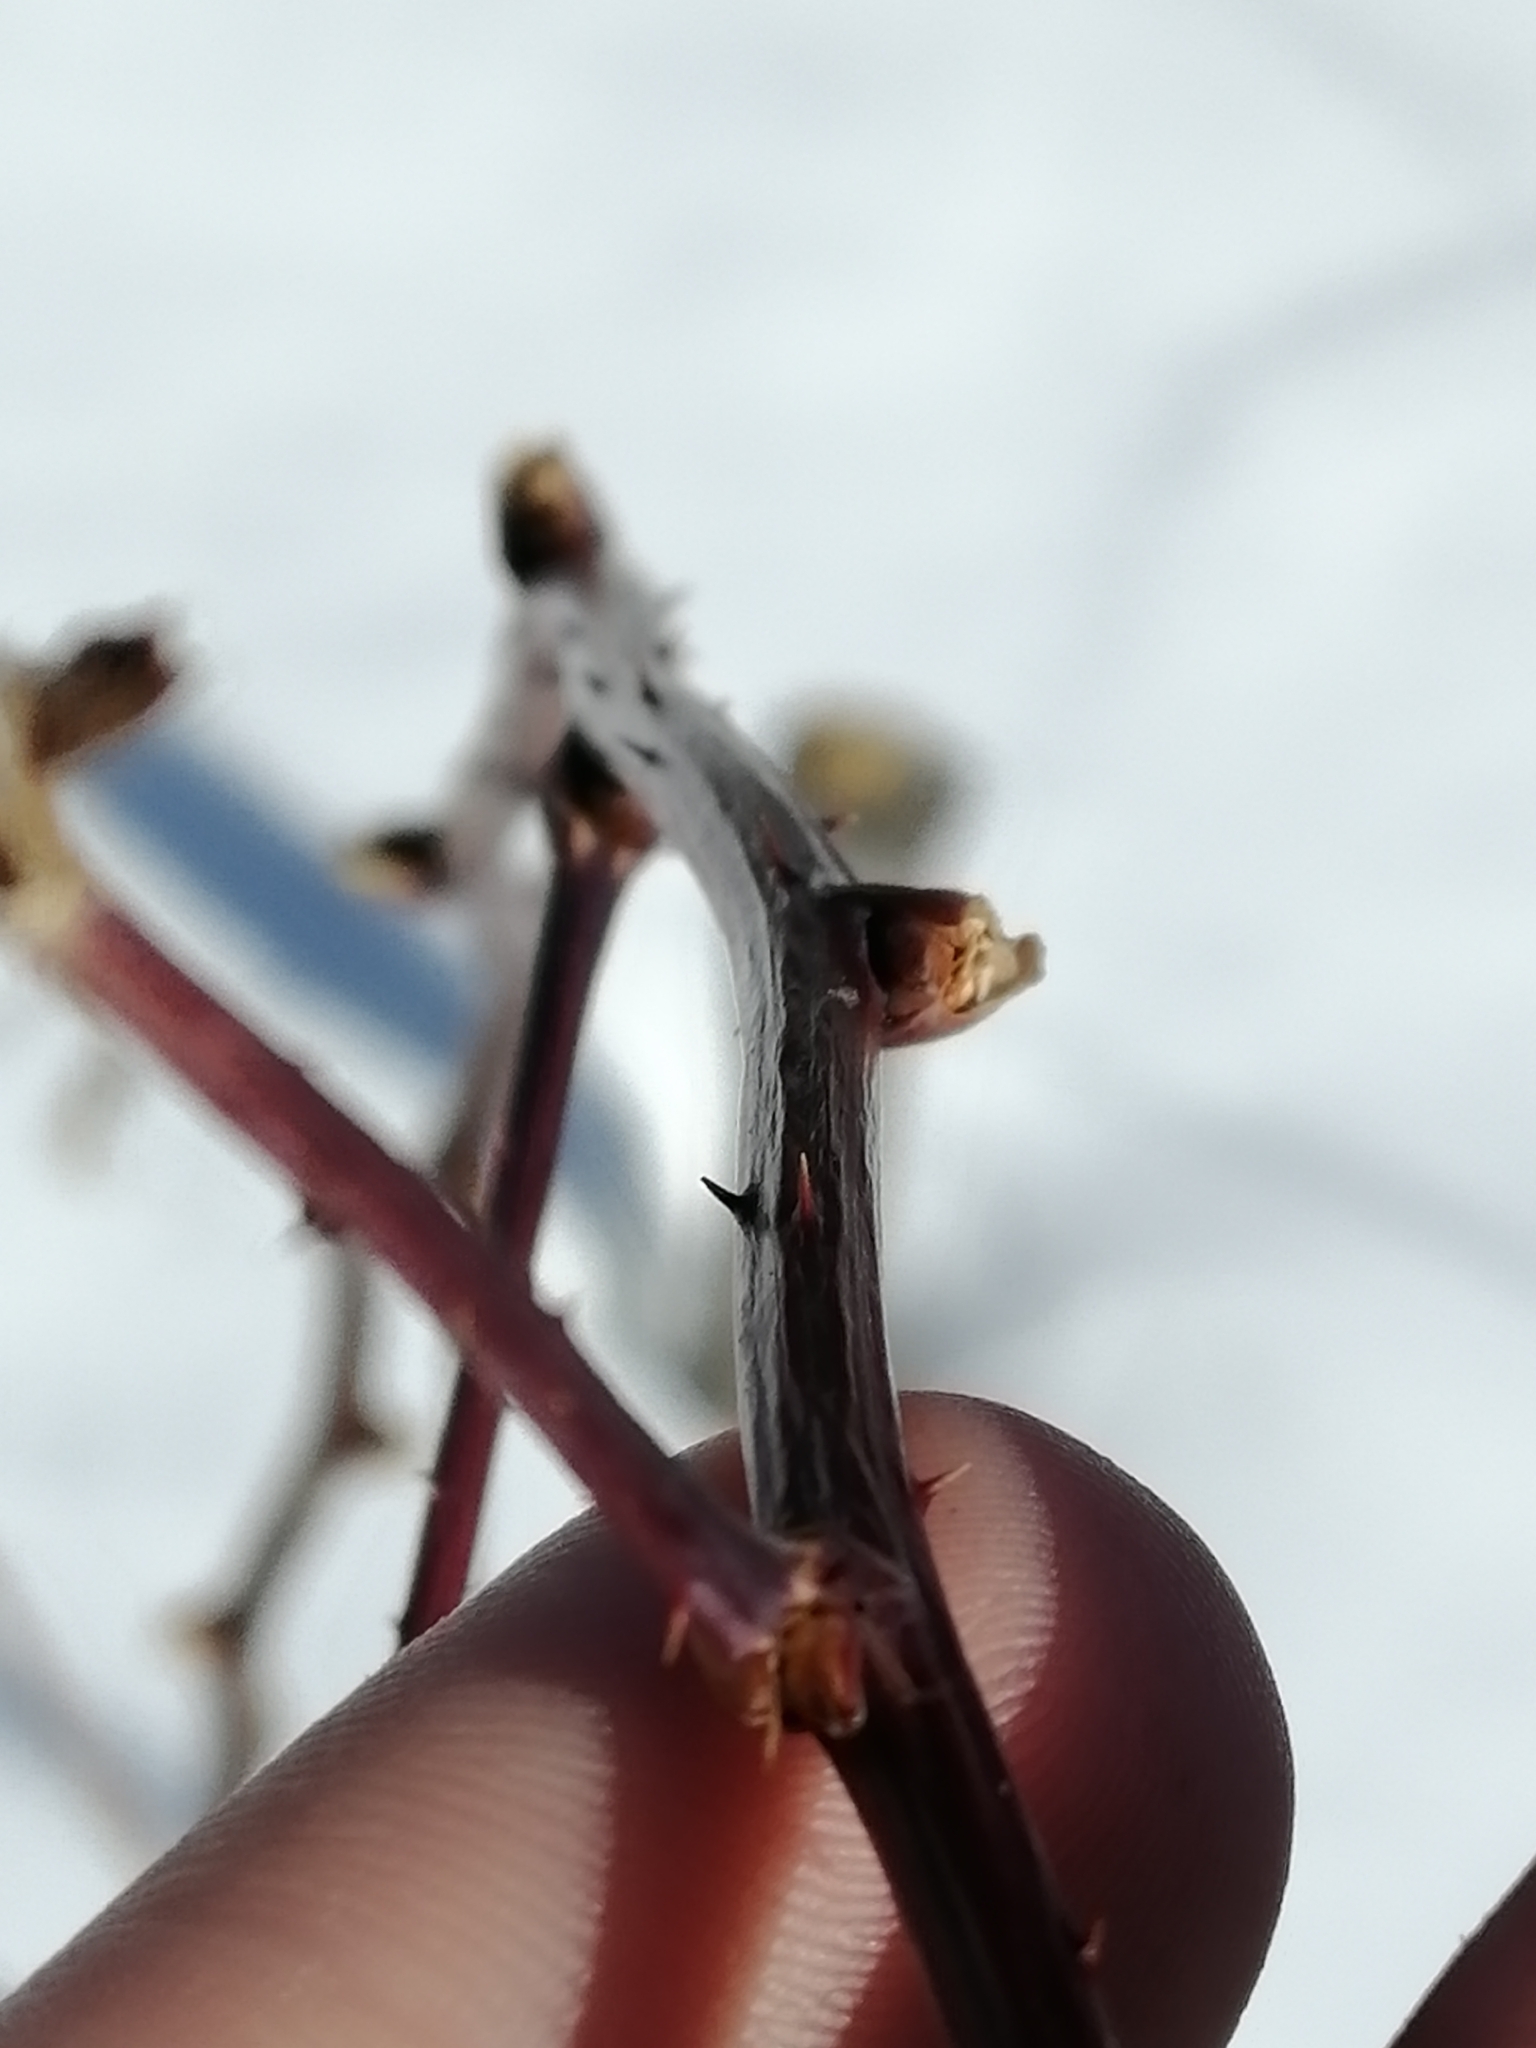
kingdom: Plantae
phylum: Tracheophyta
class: Magnoliopsida
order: Rosales
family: Rosaceae
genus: Rubus
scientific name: Rubus idaeus
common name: Raspberry
